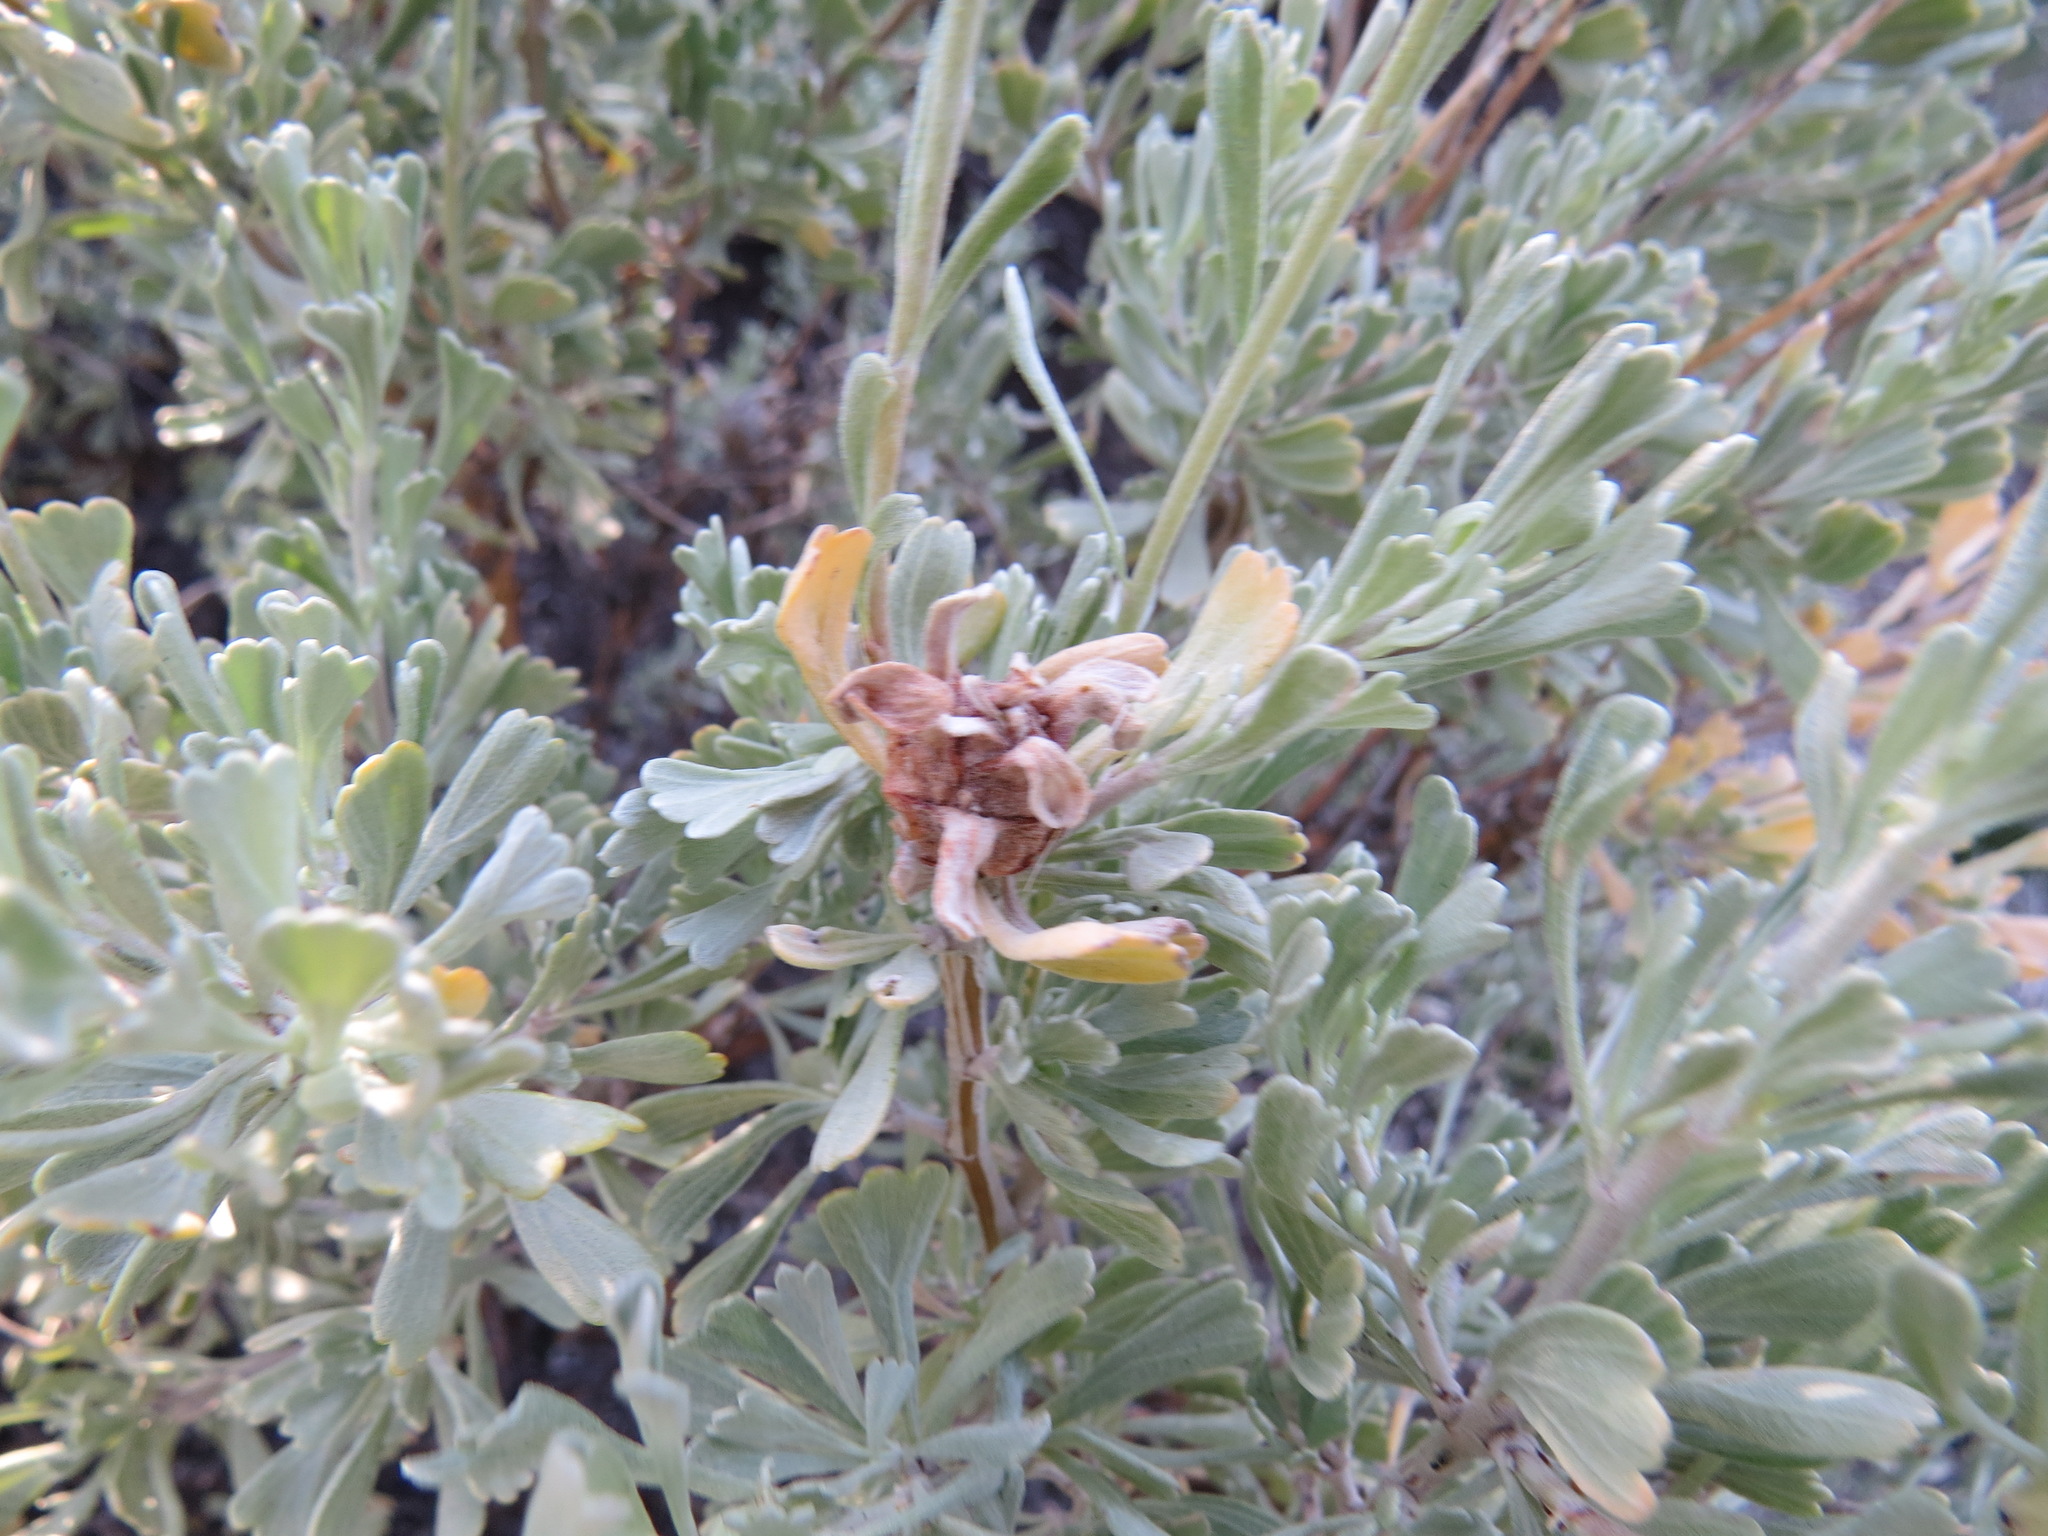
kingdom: Animalia
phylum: Arthropoda
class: Insecta
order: Diptera
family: Tephritidae
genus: Eutreta
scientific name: Eutreta diana
